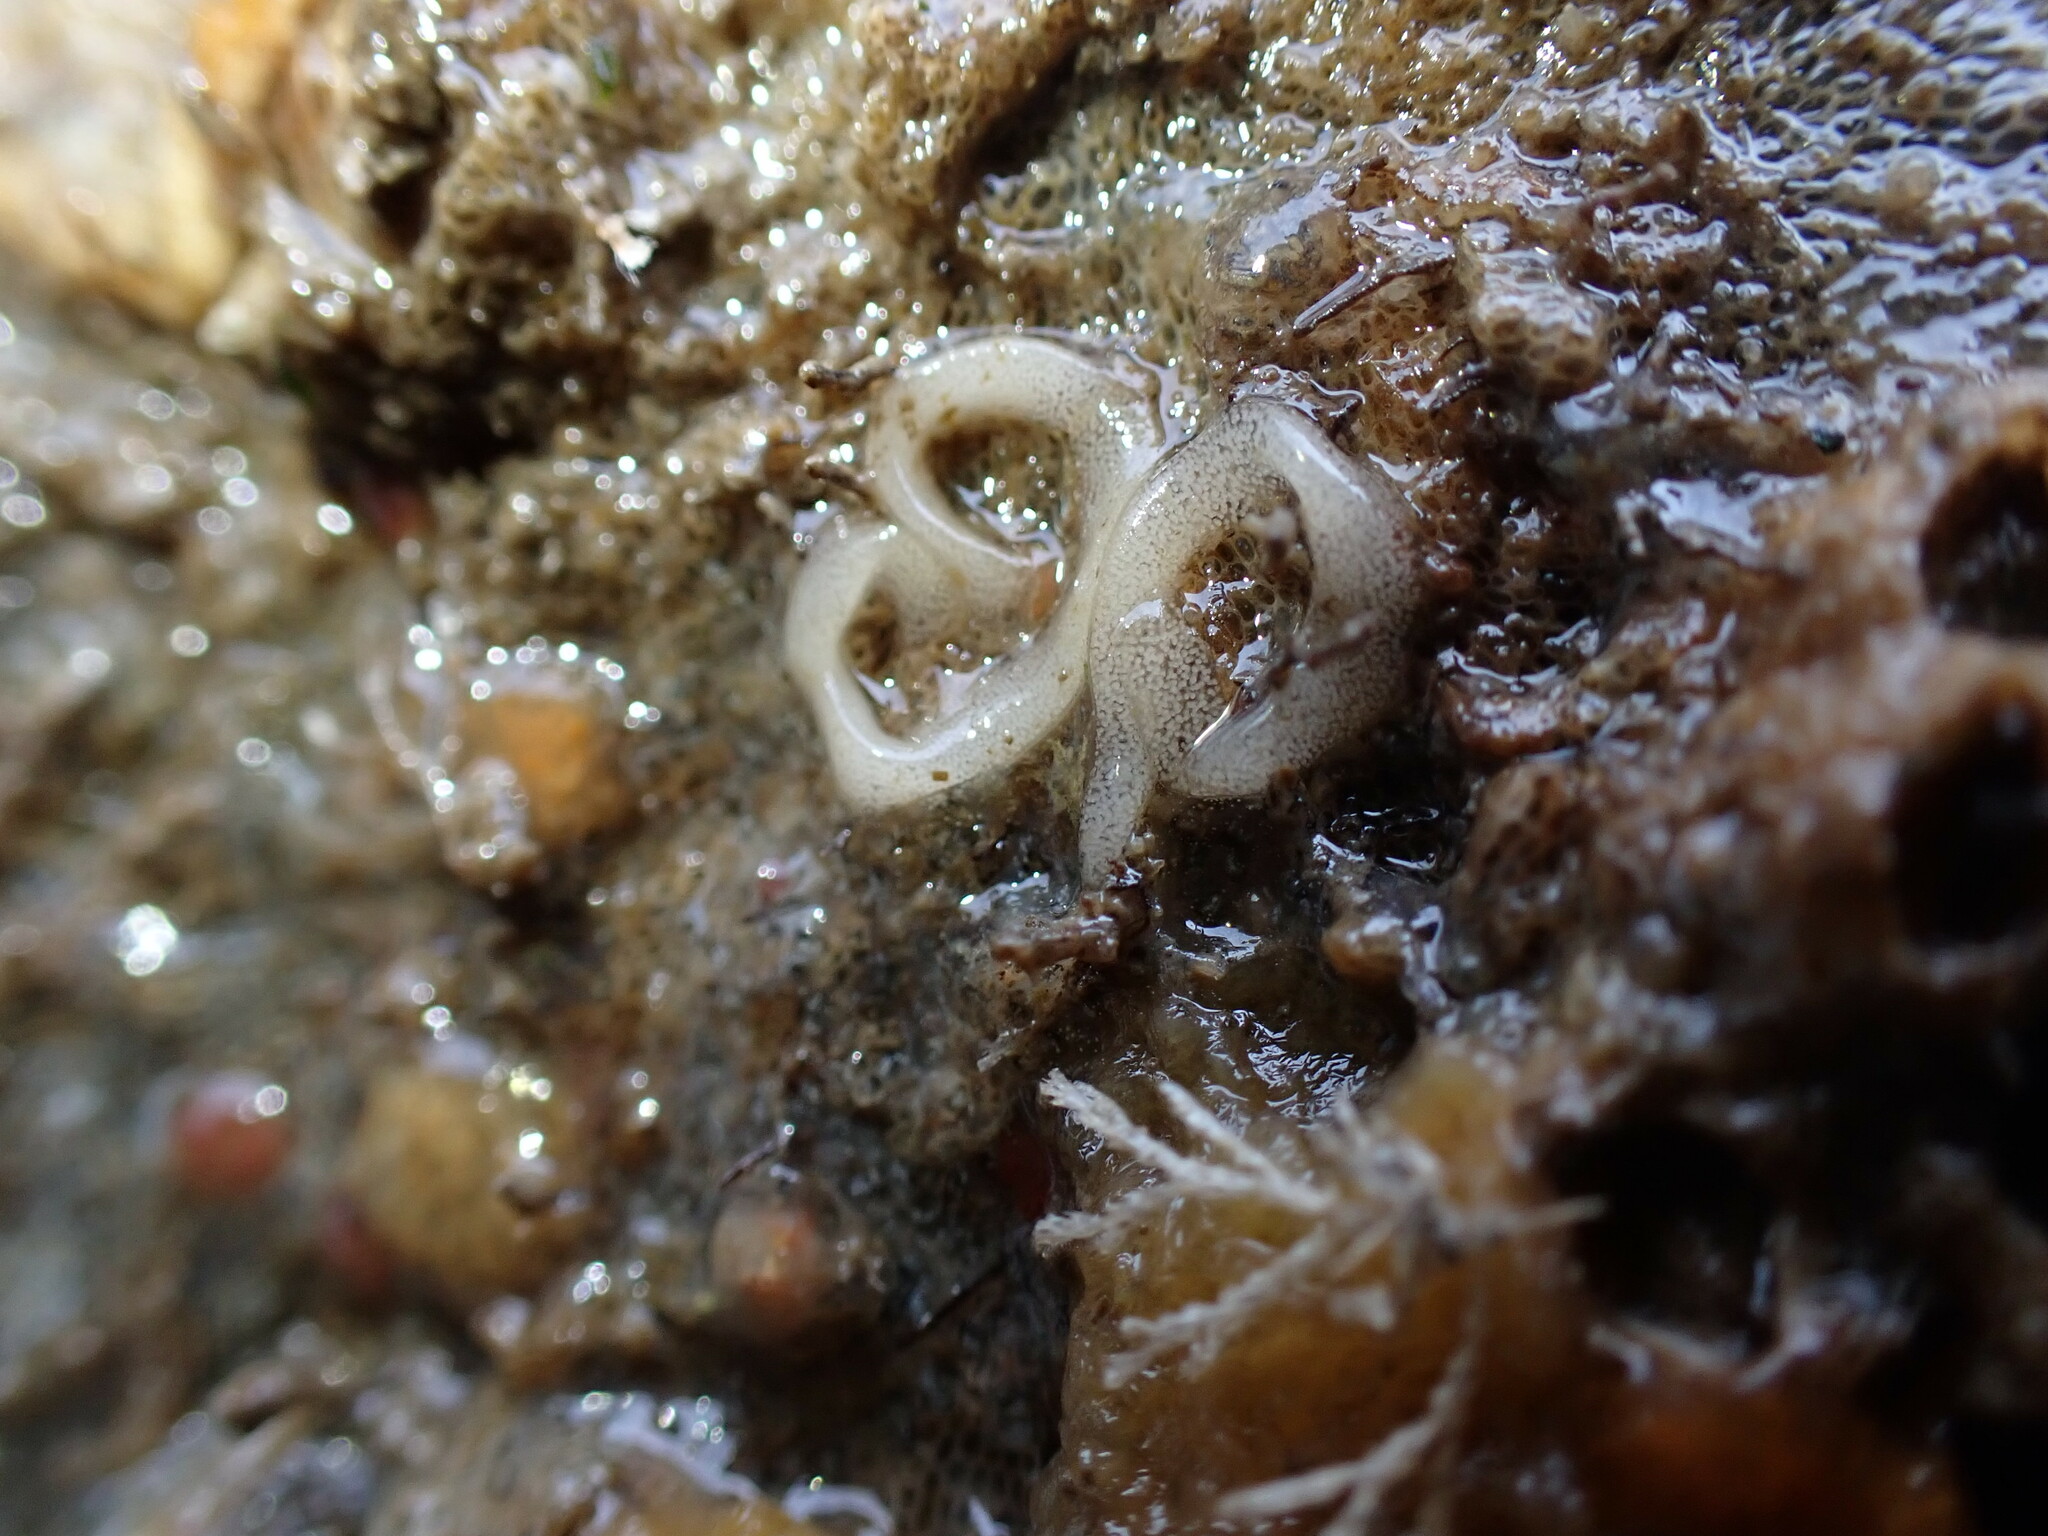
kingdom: Animalia
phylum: Mollusca
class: Gastropoda
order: Nudibranchia
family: Polyceridae
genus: Palio
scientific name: Palio nothus
